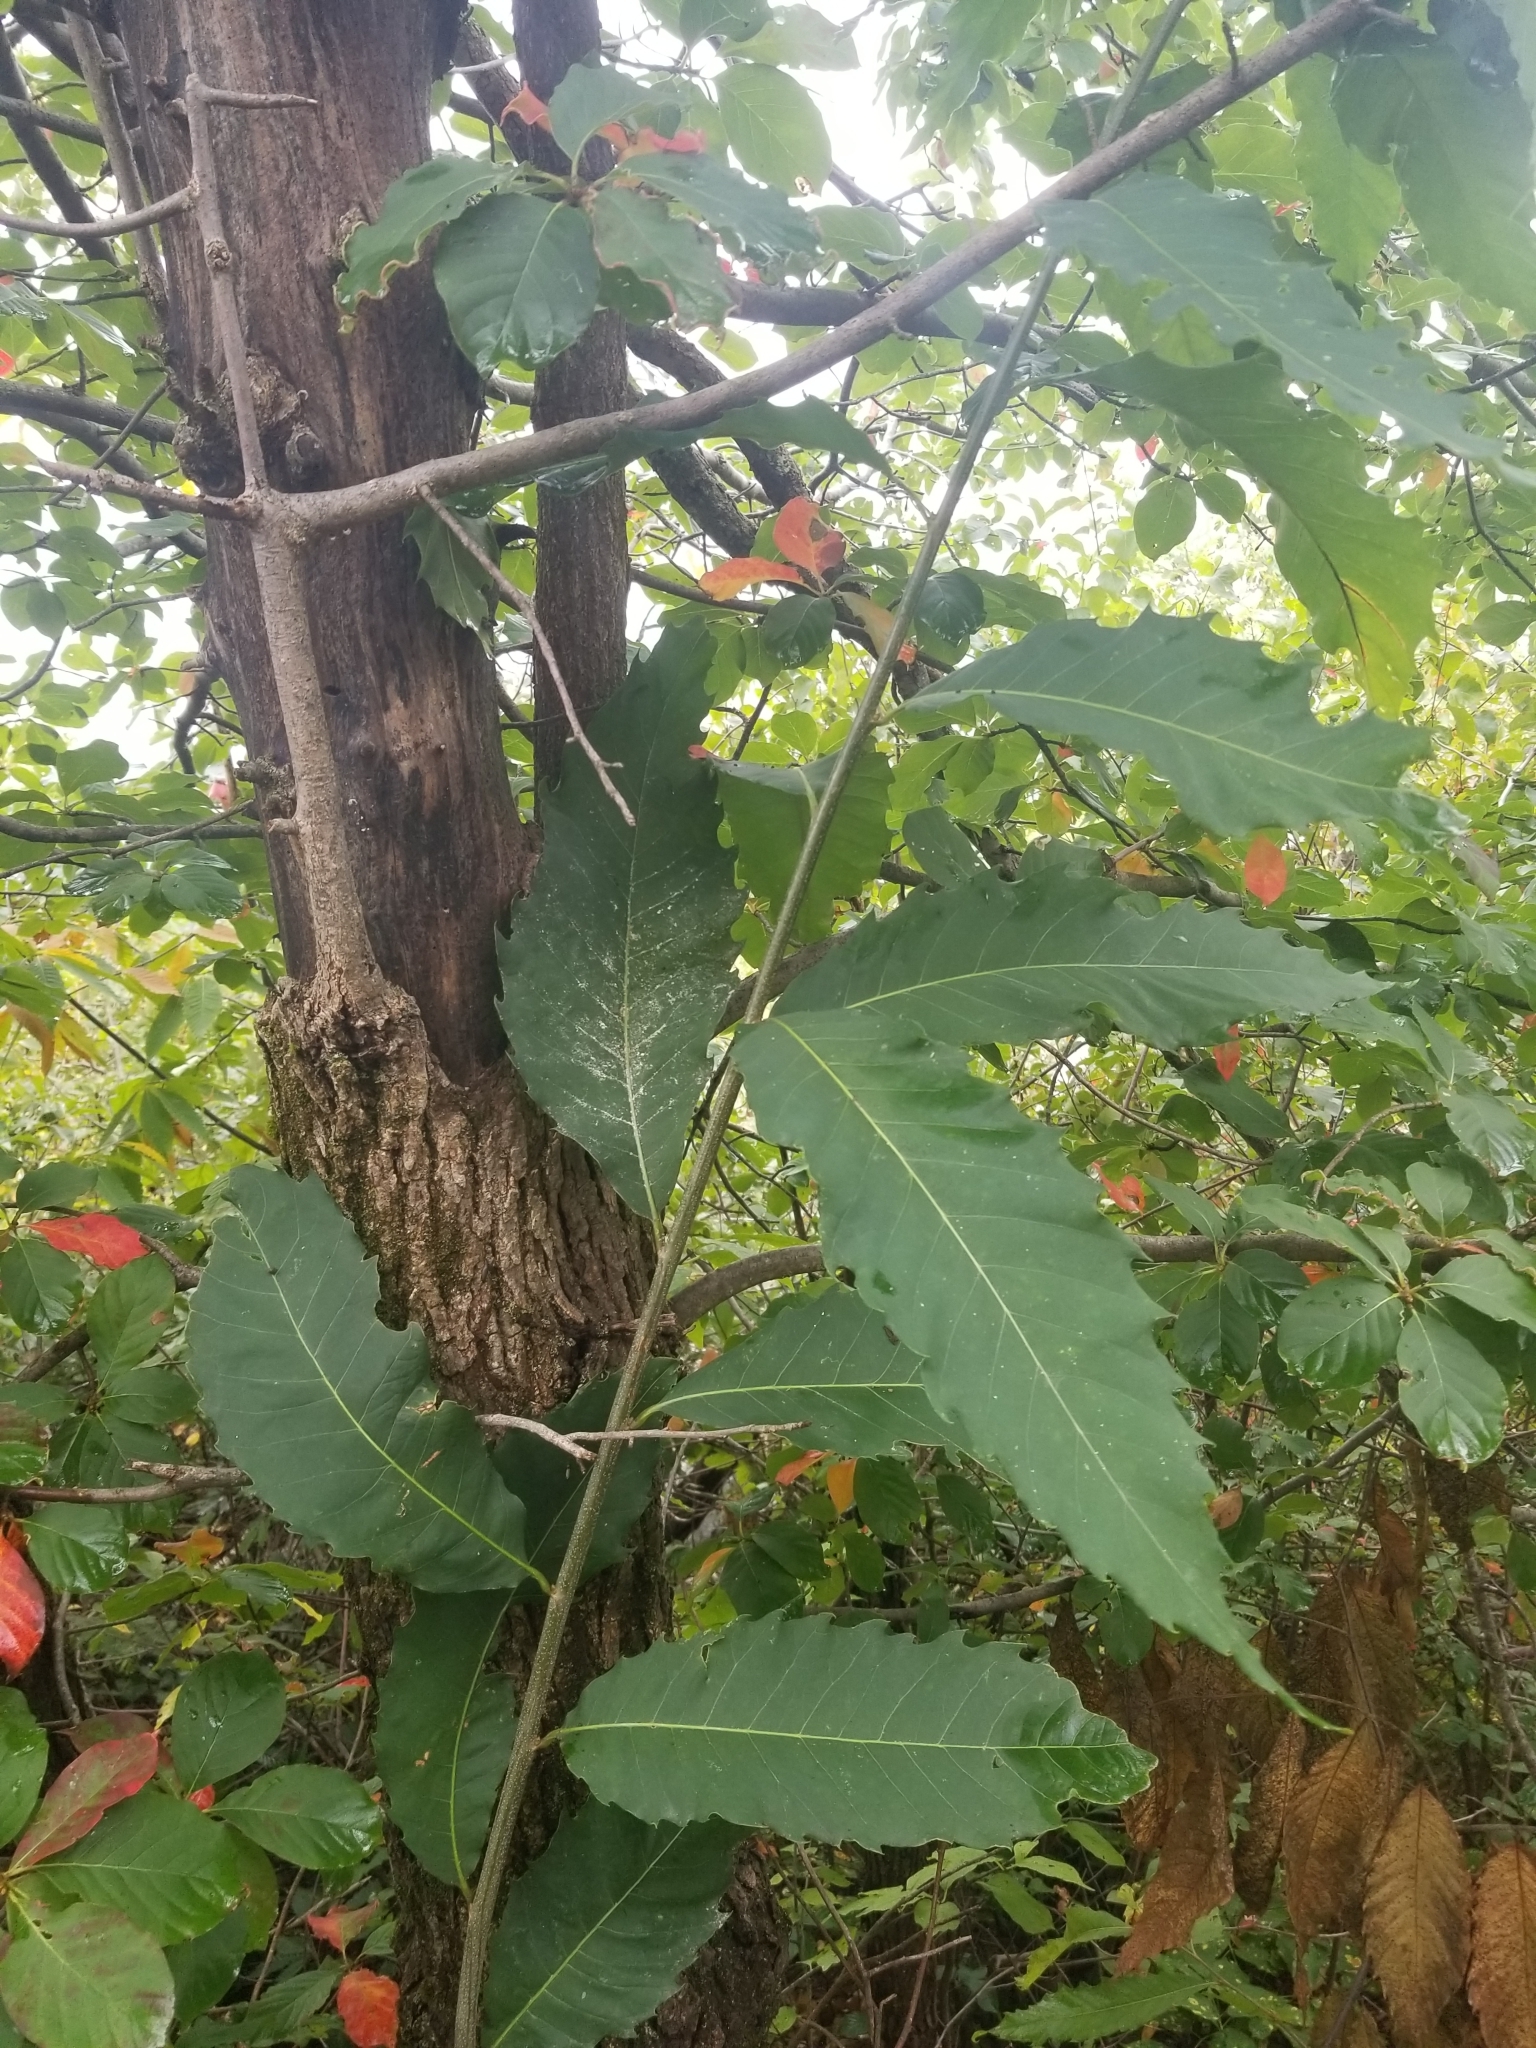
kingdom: Plantae
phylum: Tracheophyta
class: Magnoliopsida
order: Fagales
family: Fagaceae
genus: Quercus
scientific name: Quercus acutissima
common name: Sawtooth oak
